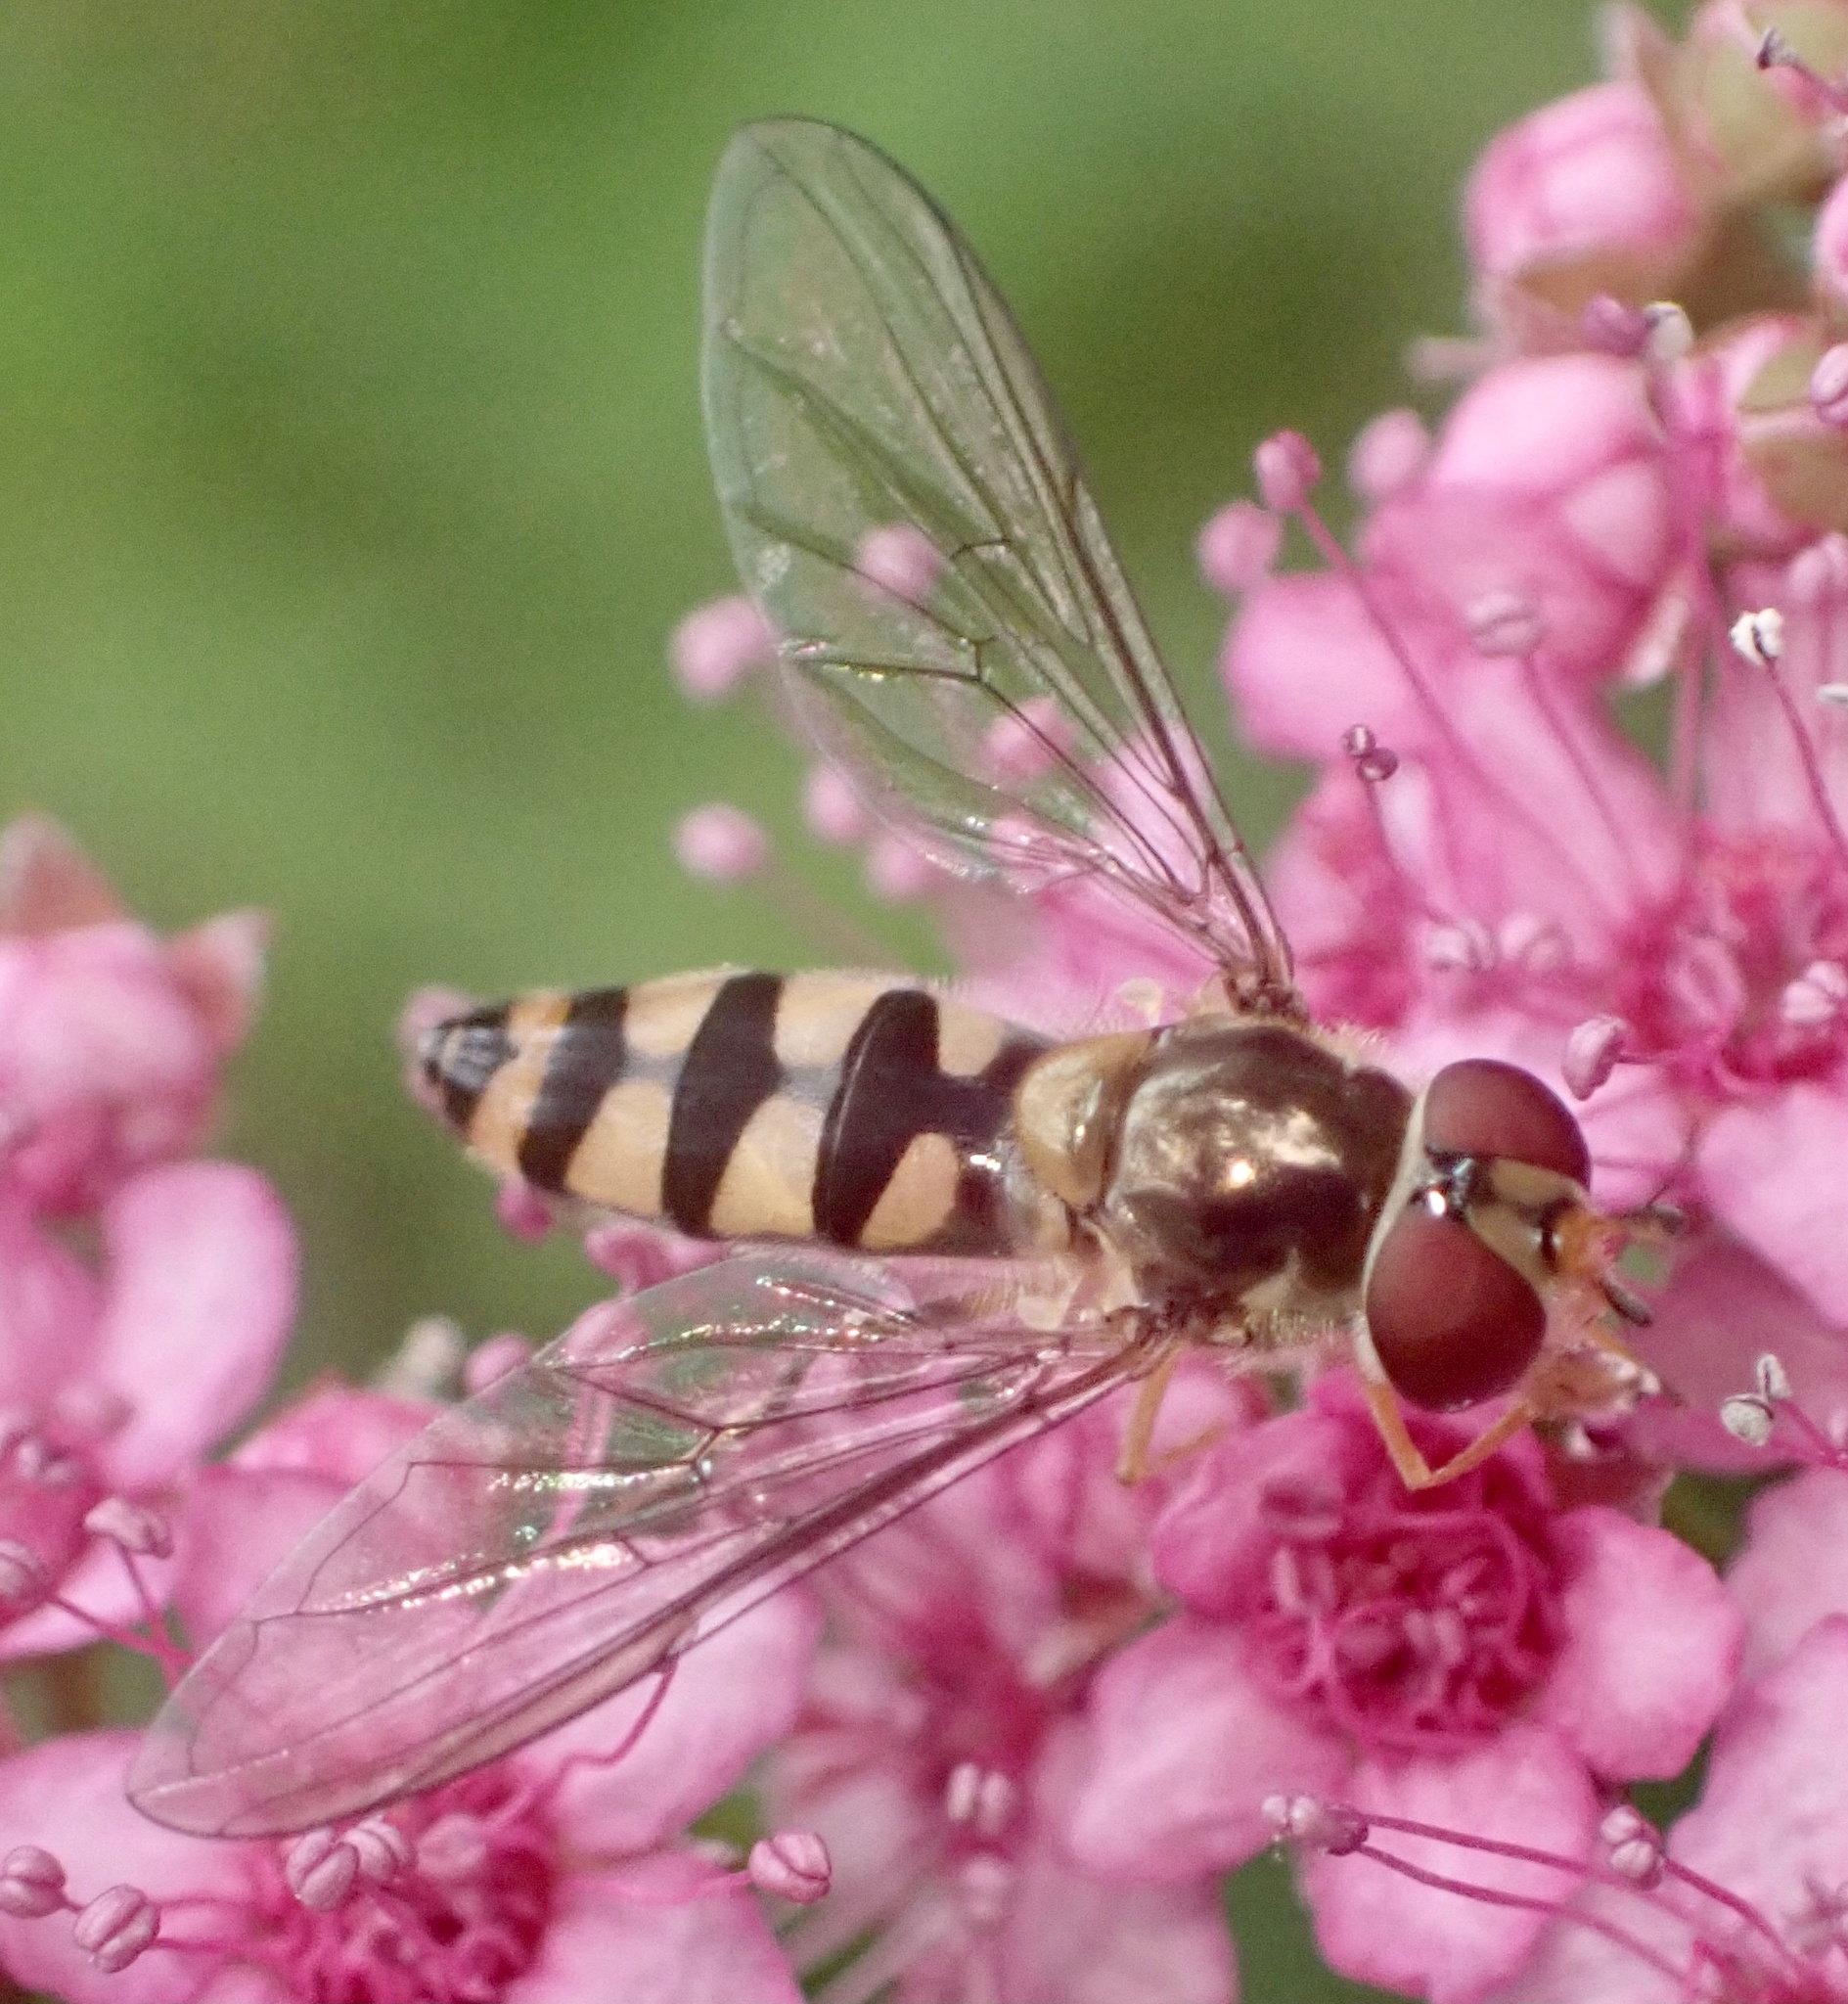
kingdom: Animalia
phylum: Arthropoda
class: Insecta
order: Diptera
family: Syrphidae
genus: Meliscaeva
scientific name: Meliscaeva auricollis
